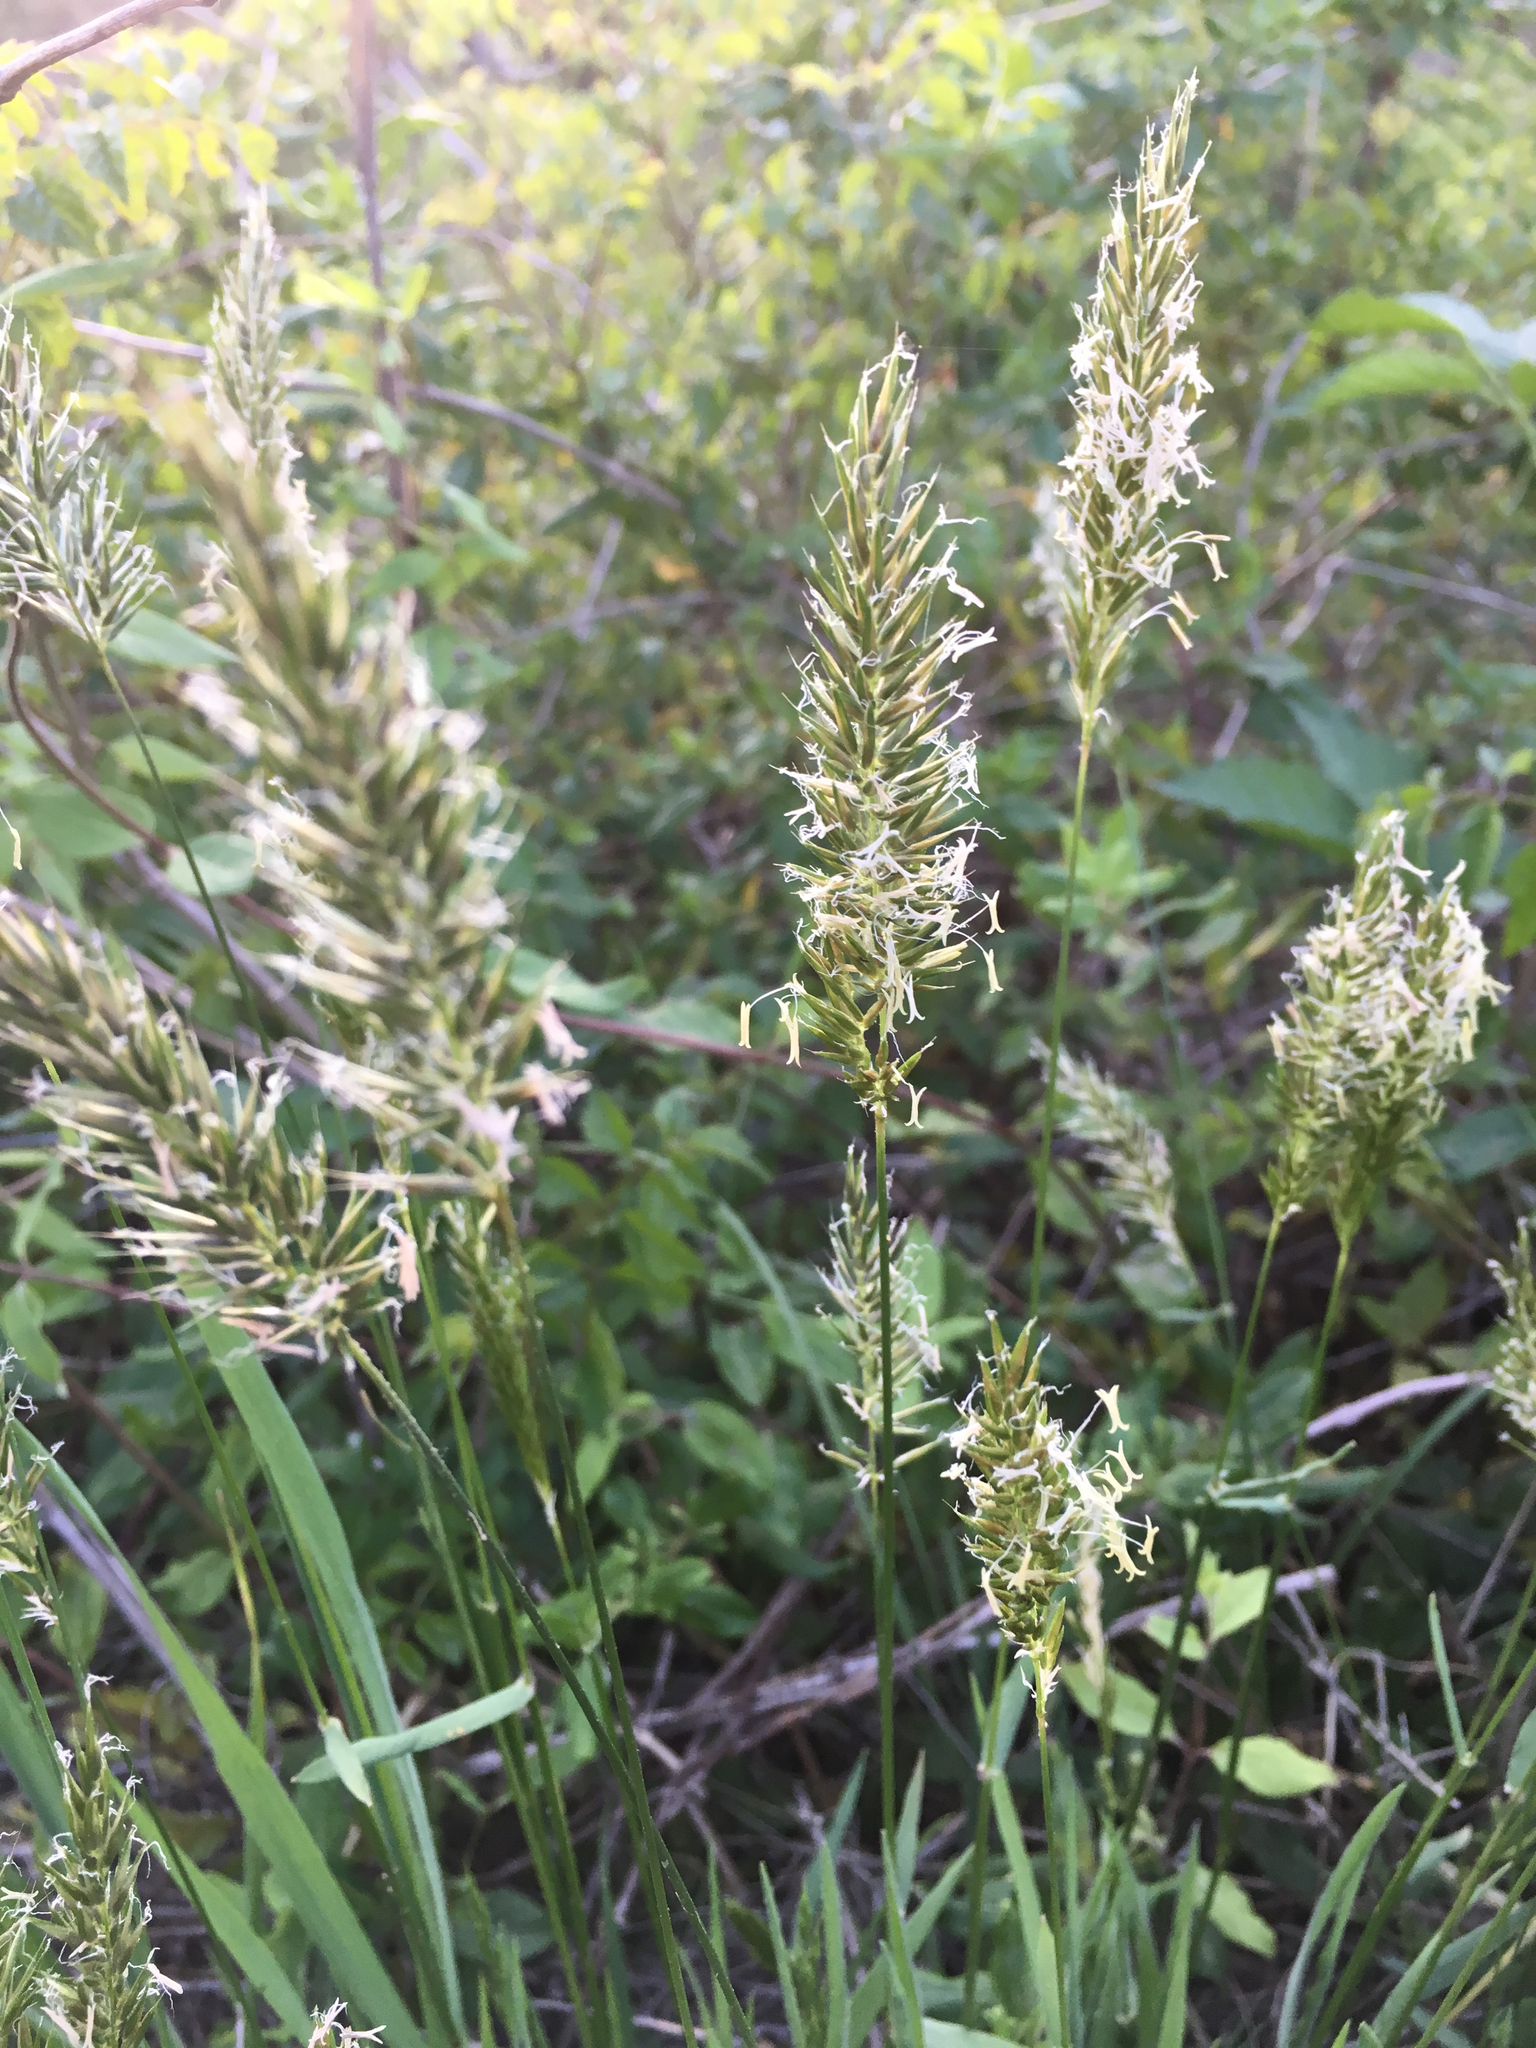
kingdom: Plantae
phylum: Tracheophyta
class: Liliopsida
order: Poales
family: Poaceae
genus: Anthoxanthum
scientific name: Anthoxanthum odoratum
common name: Sweet vernalgrass
